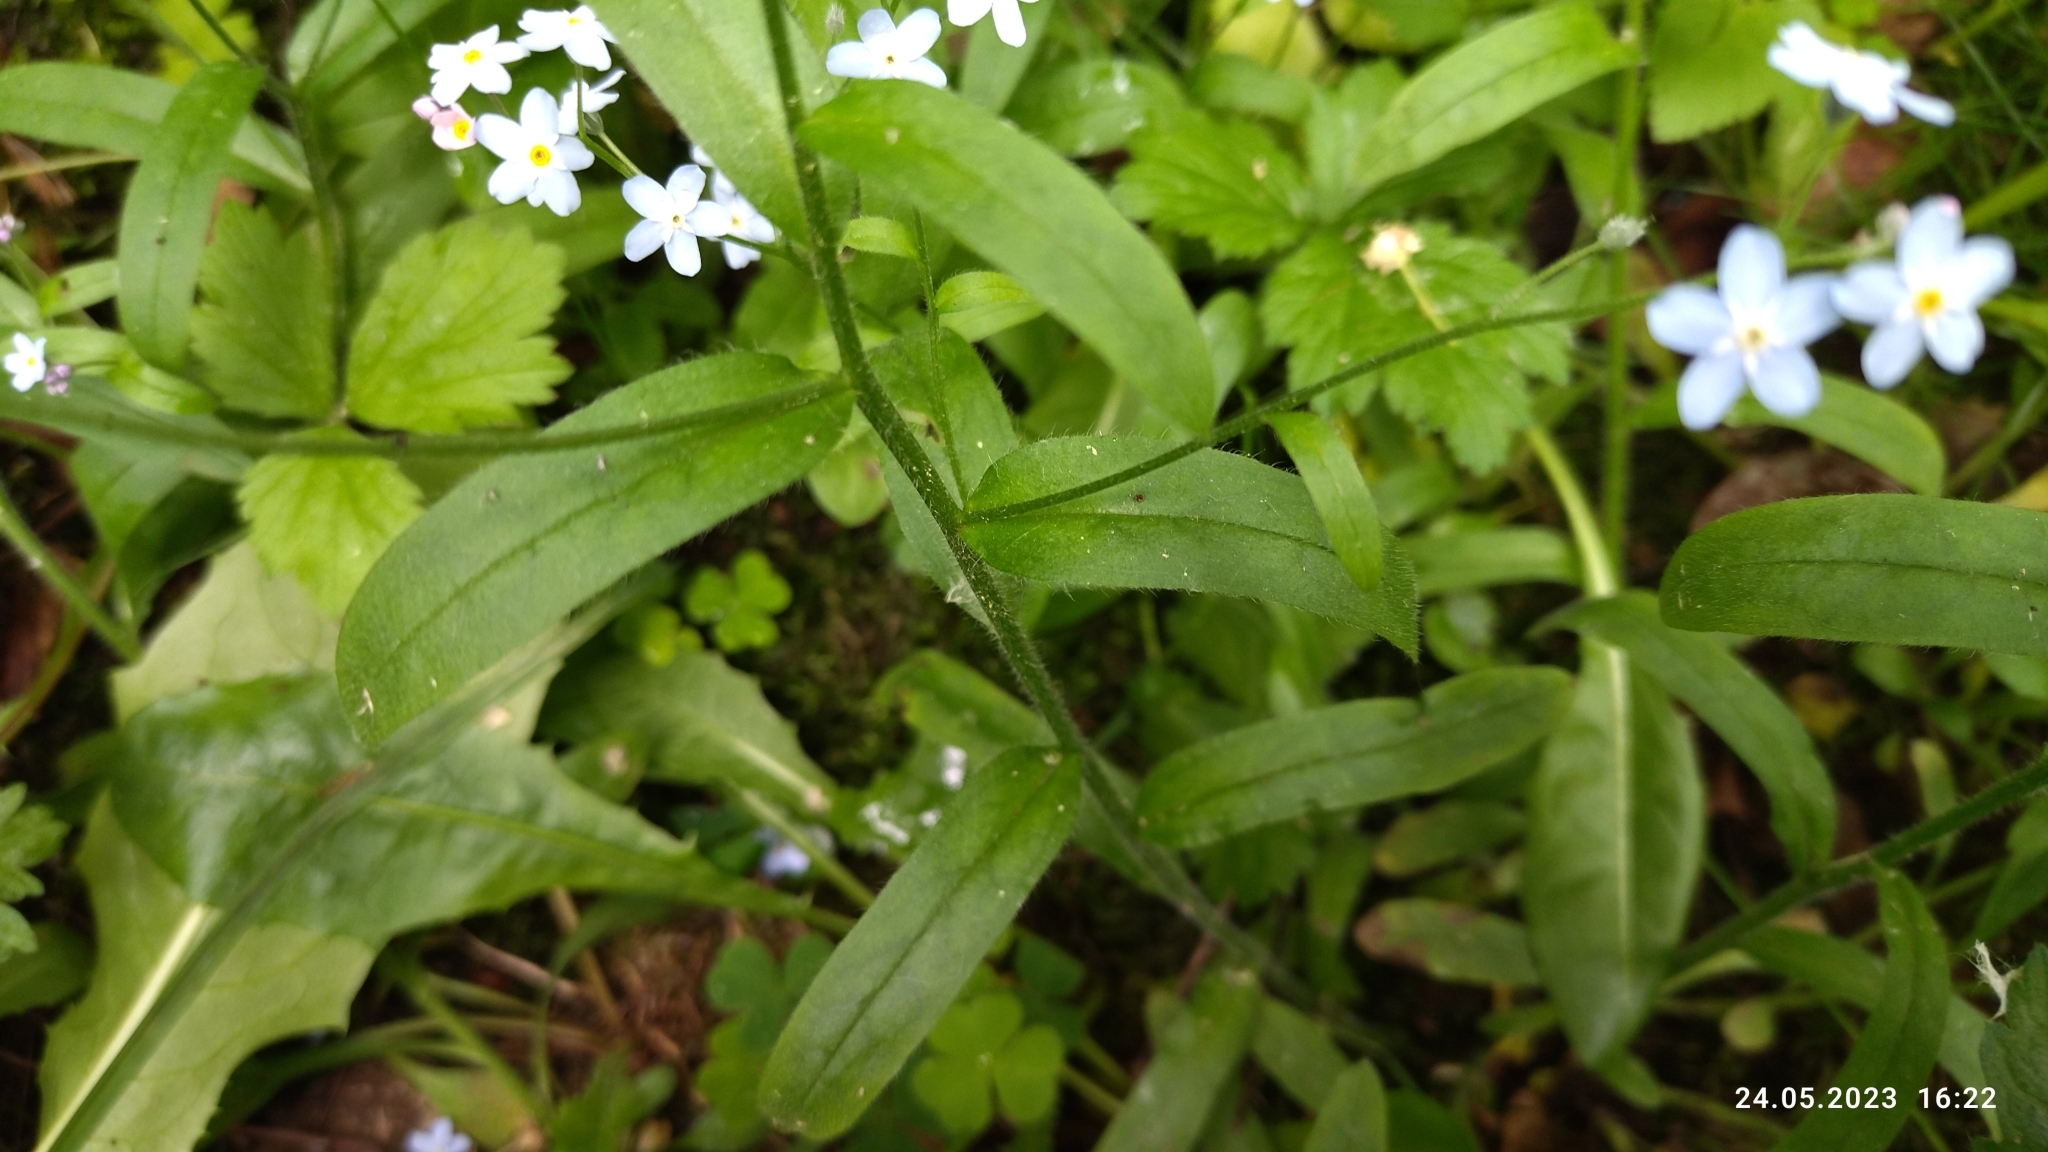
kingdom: Plantae
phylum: Tracheophyta
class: Magnoliopsida
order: Boraginales
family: Boraginaceae
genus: Myosotis
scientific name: Myosotis sylvatica
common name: Wood forget-me-not
